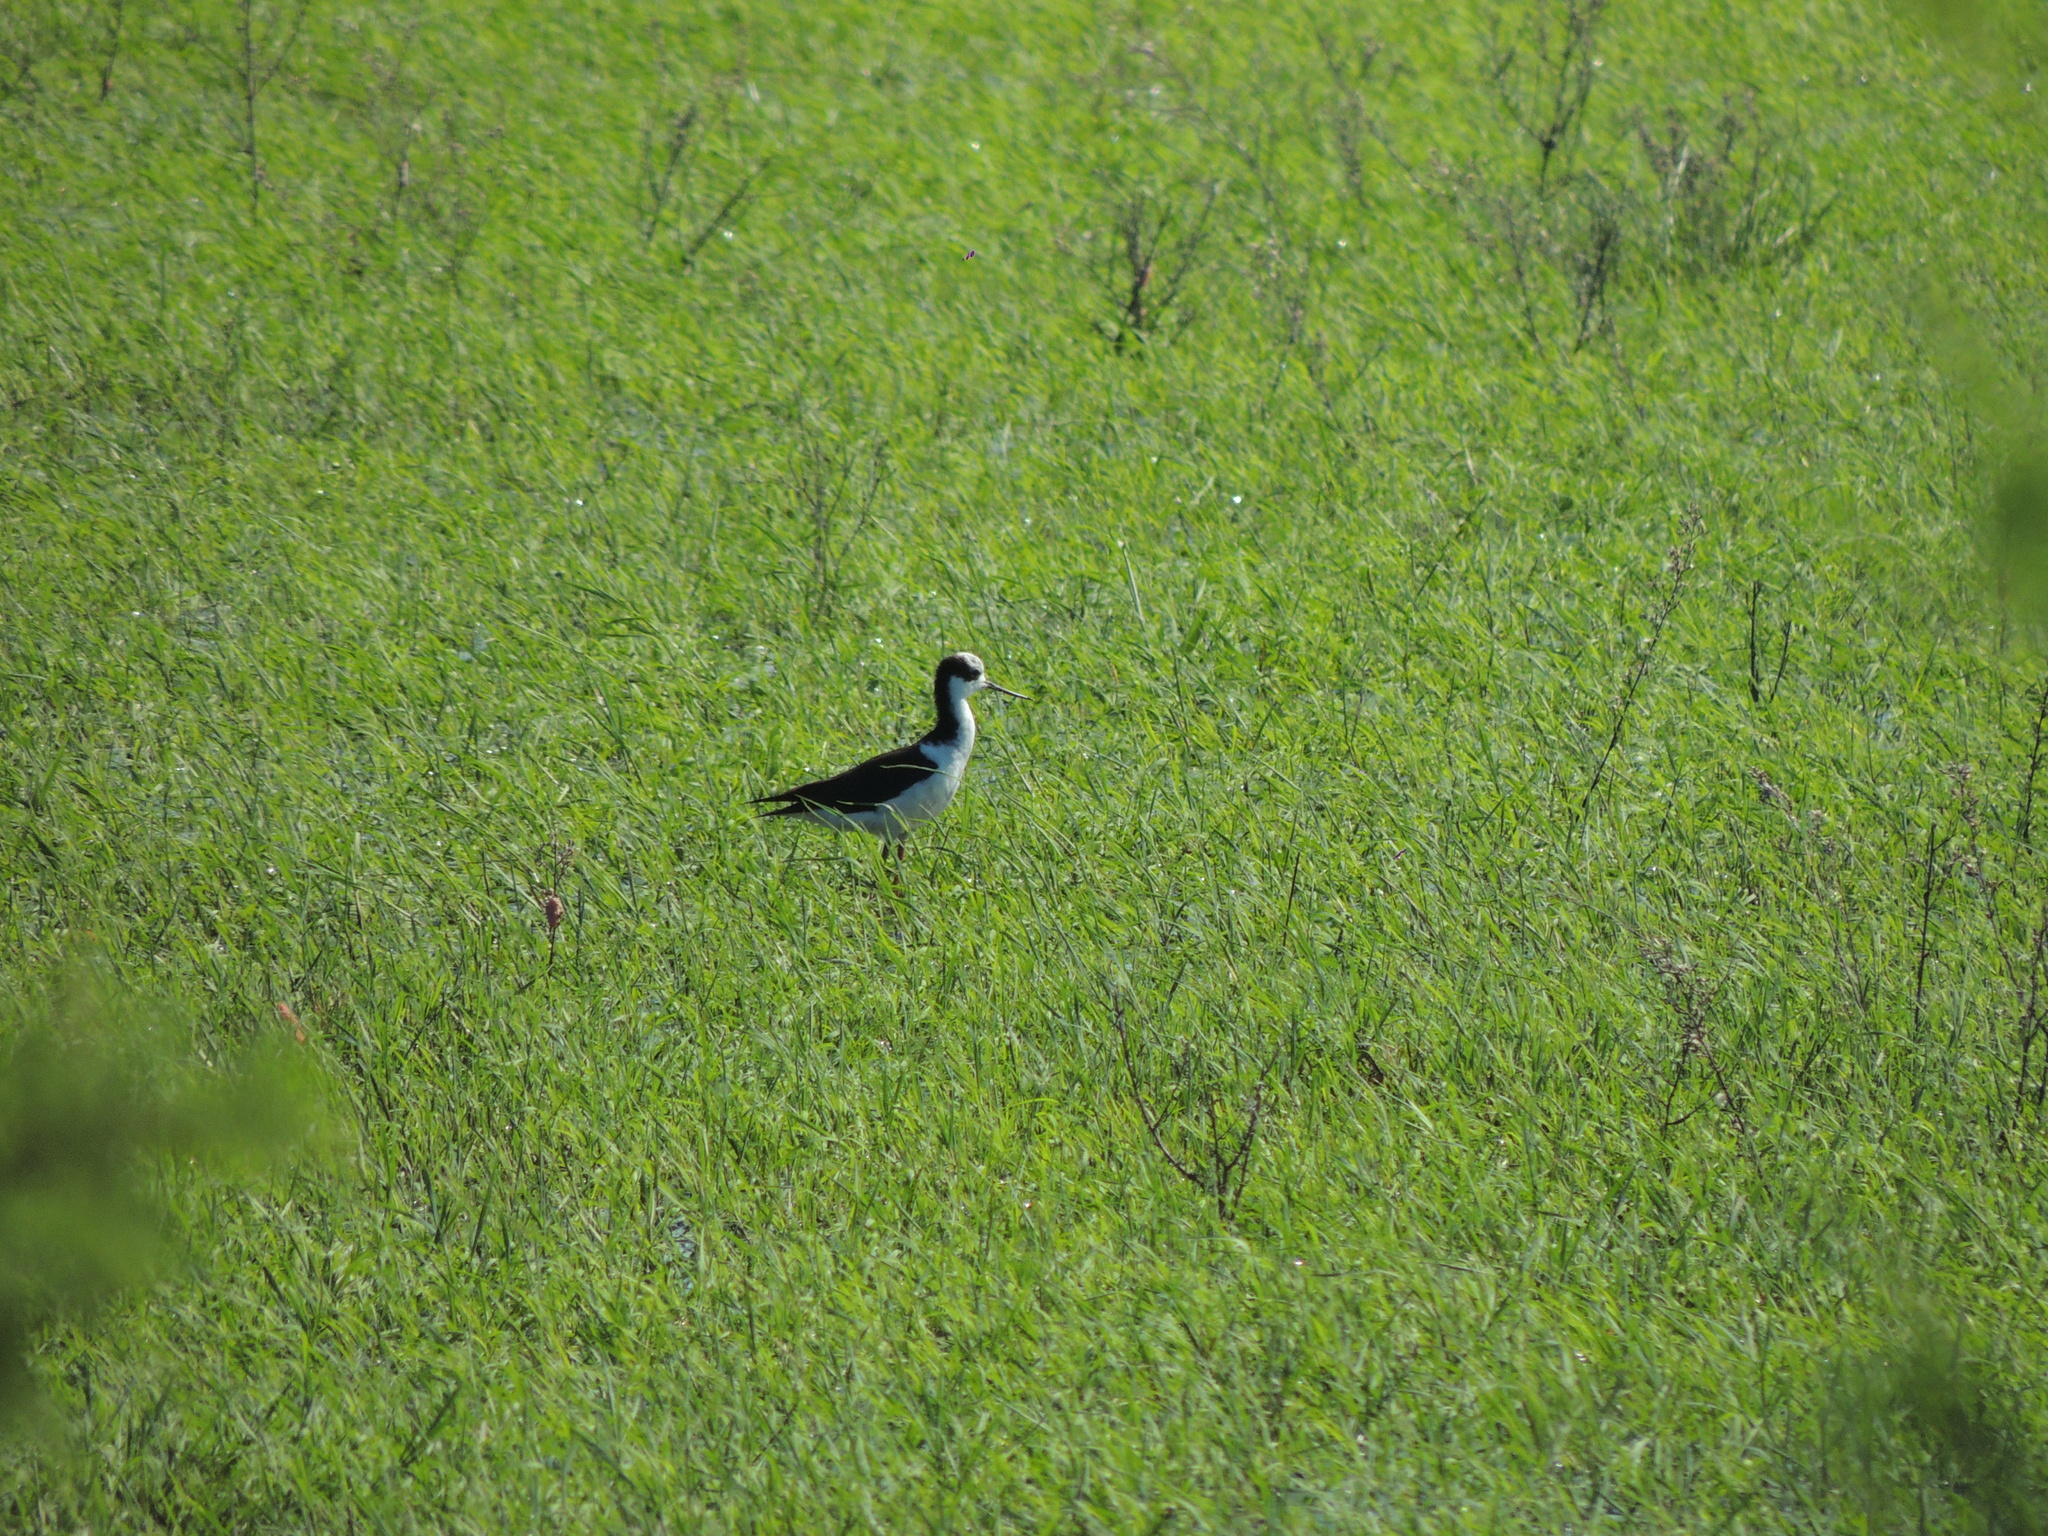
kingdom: Animalia
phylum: Chordata
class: Aves
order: Charadriiformes
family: Recurvirostridae
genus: Himantopus
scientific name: Himantopus mexicanus
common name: Black-necked stilt
